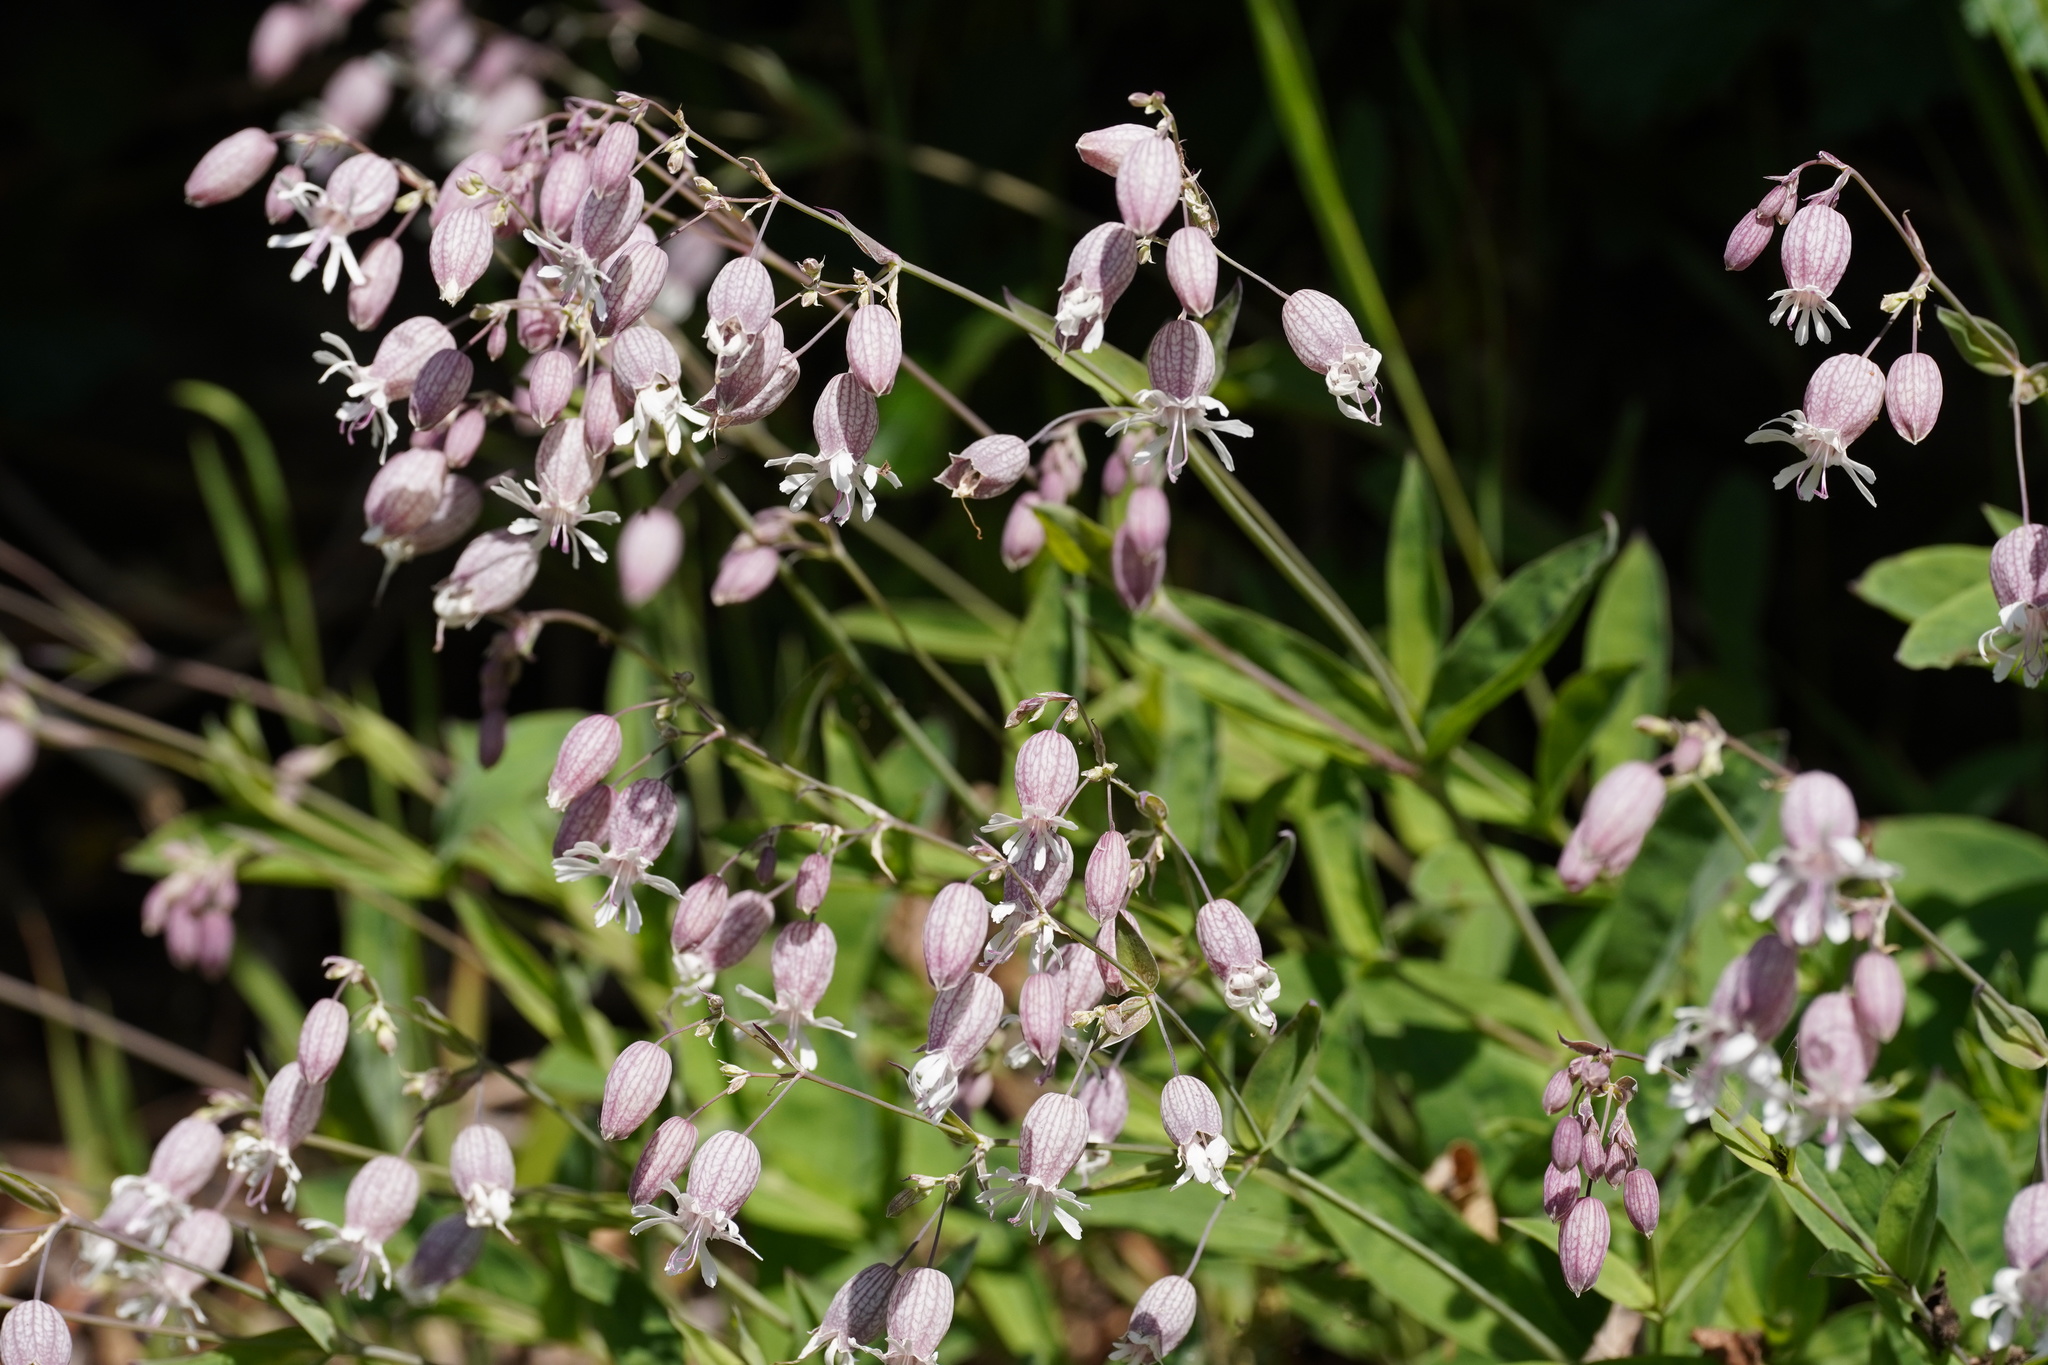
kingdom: Plantae
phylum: Tracheophyta
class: Magnoliopsida
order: Caryophyllales
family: Caryophyllaceae
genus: Silene
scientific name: Silene vulgaris
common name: Bladder campion
